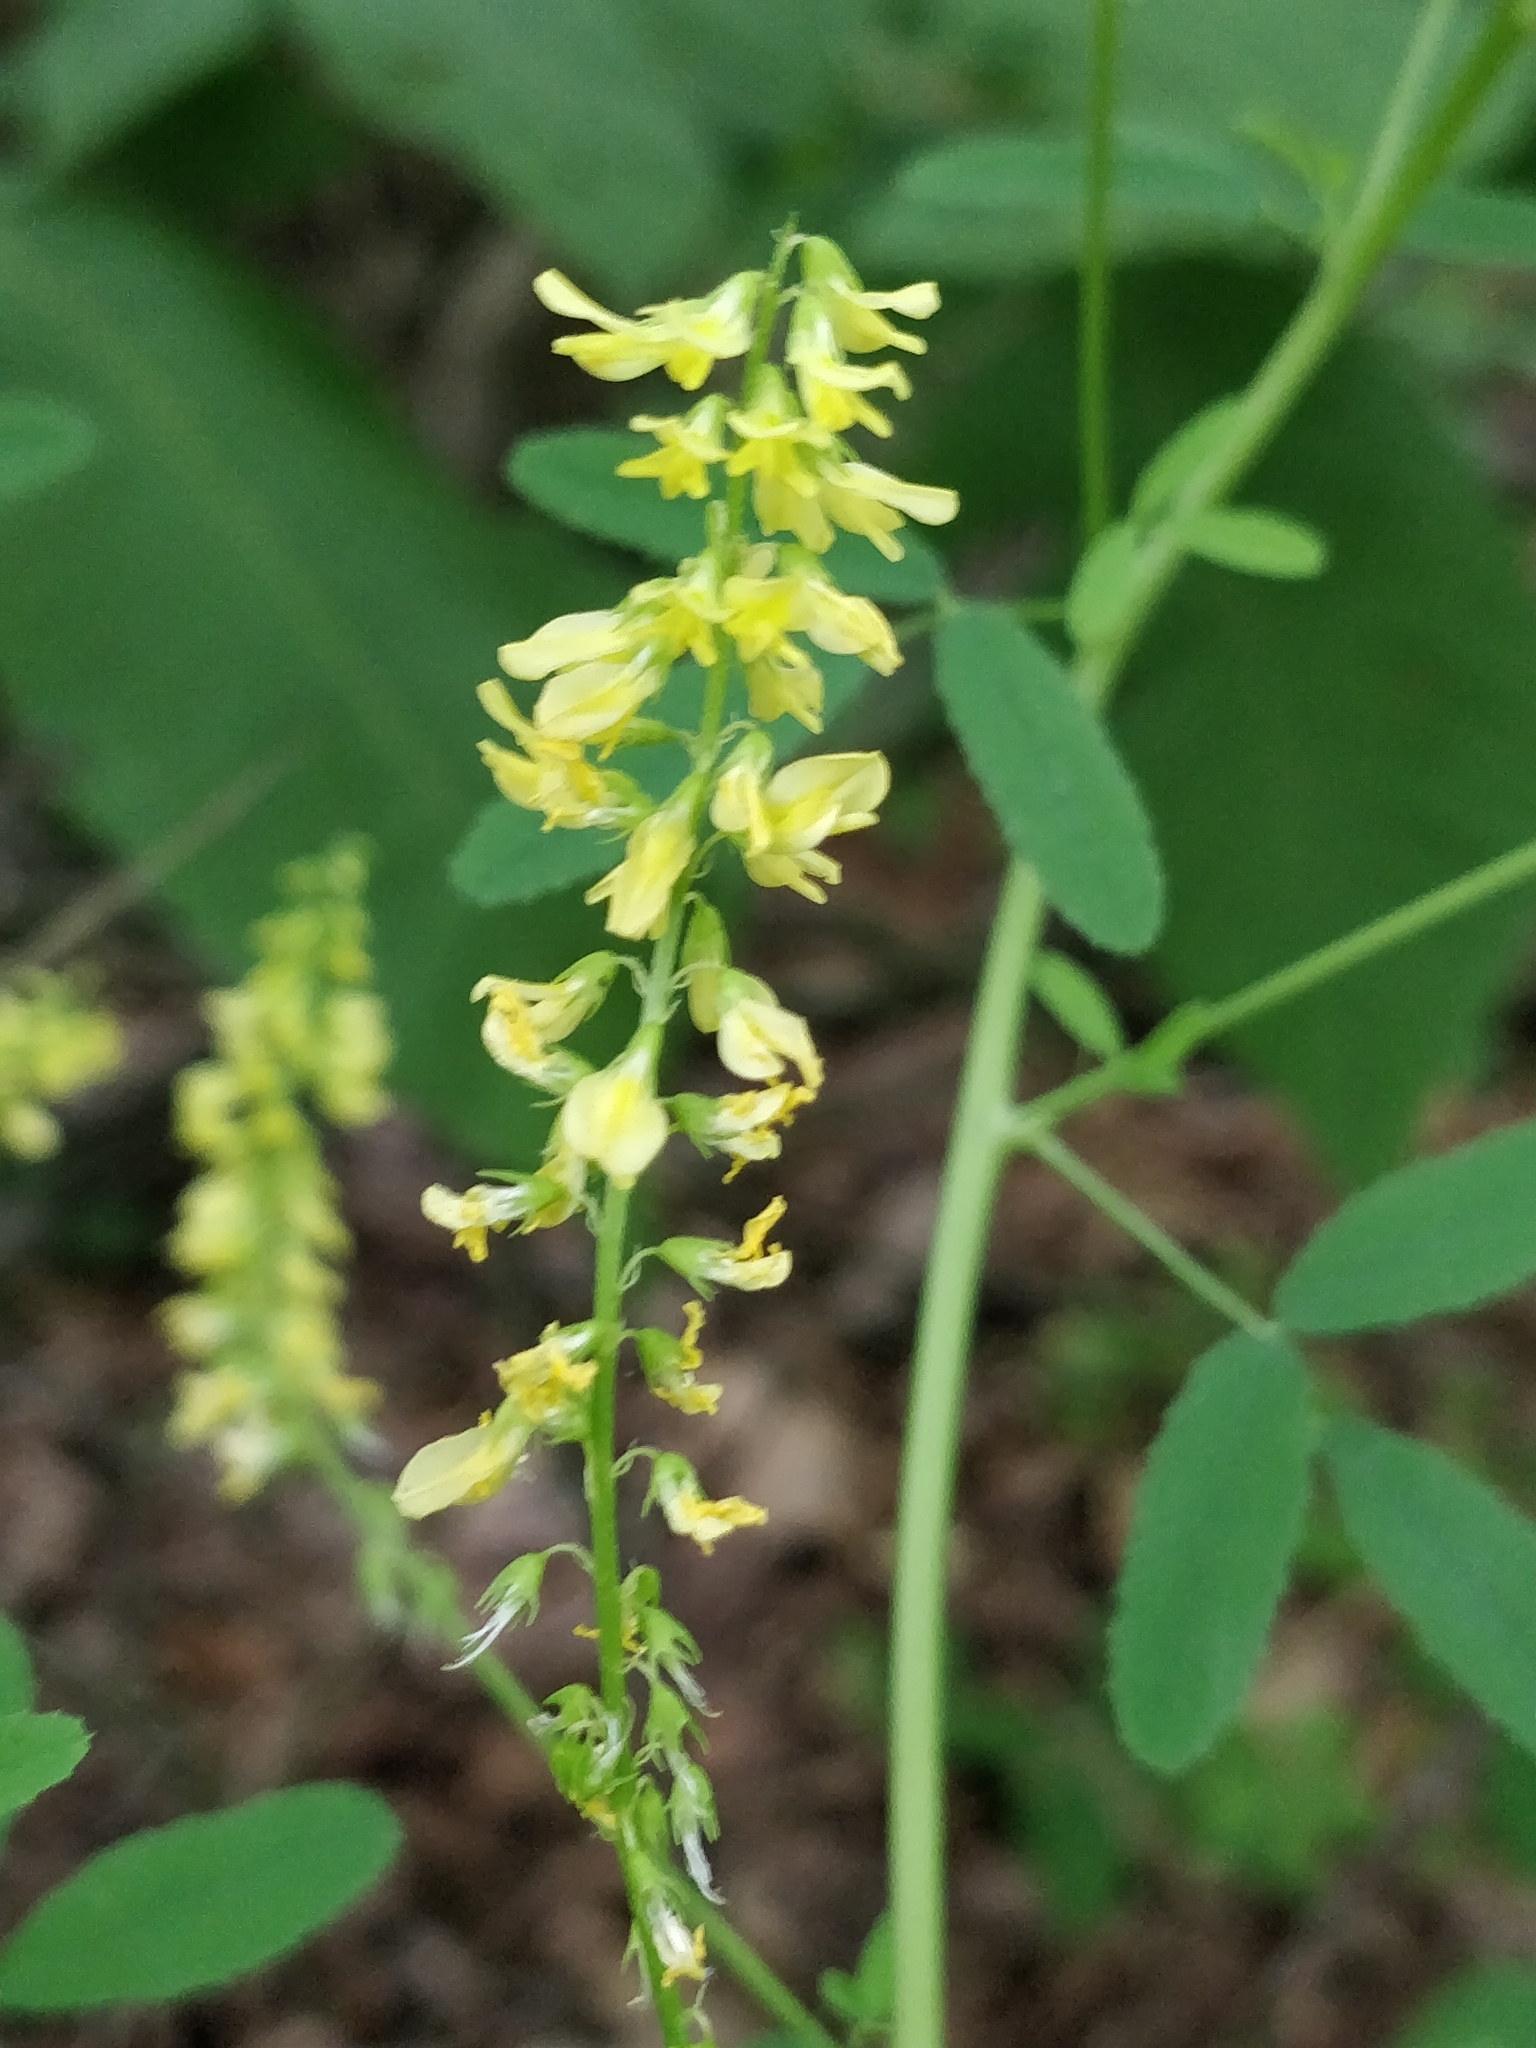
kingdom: Plantae
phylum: Tracheophyta
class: Magnoliopsida
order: Fabales
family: Fabaceae
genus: Melilotus
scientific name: Melilotus officinalis
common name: Sweetclover
